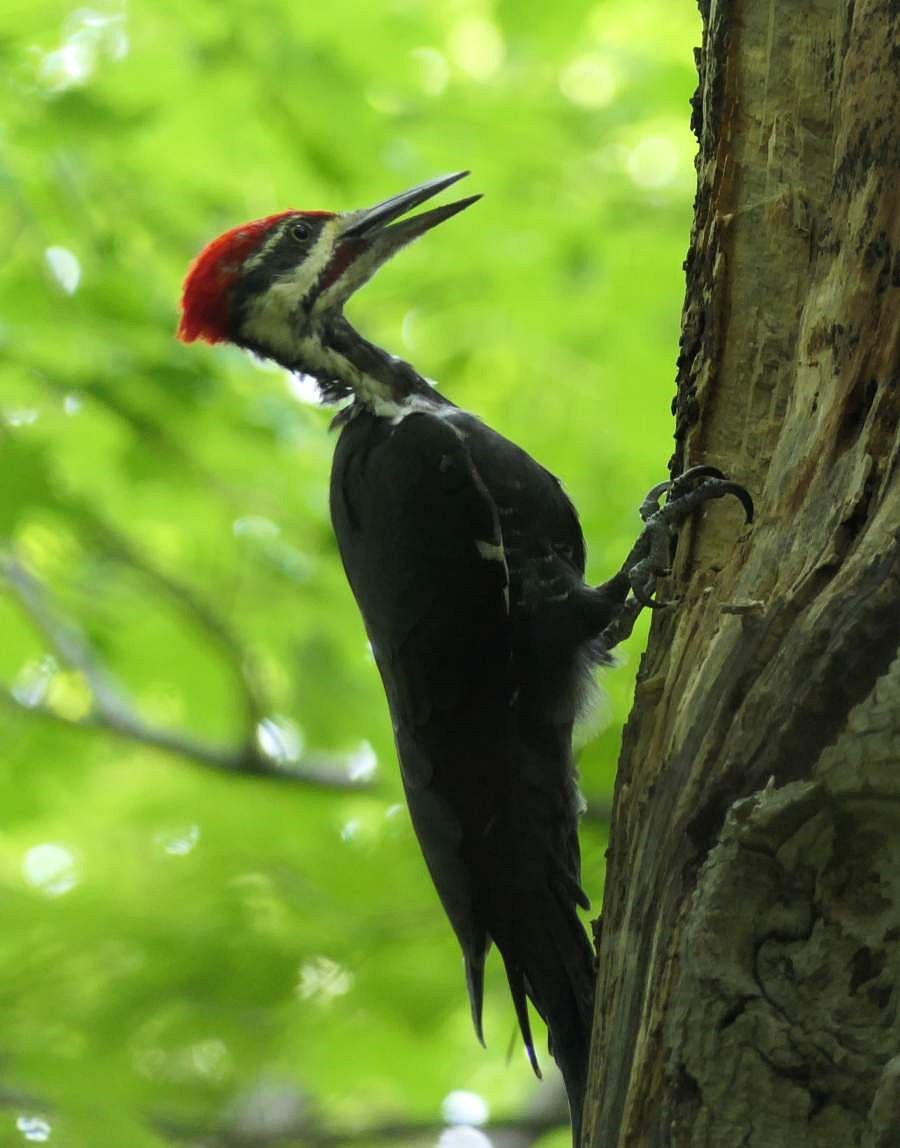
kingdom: Animalia
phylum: Chordata
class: Aves
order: Piciformes
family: Picidae
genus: Dryocopus
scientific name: Dryocopus pileatus
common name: Pileated woodpecker
